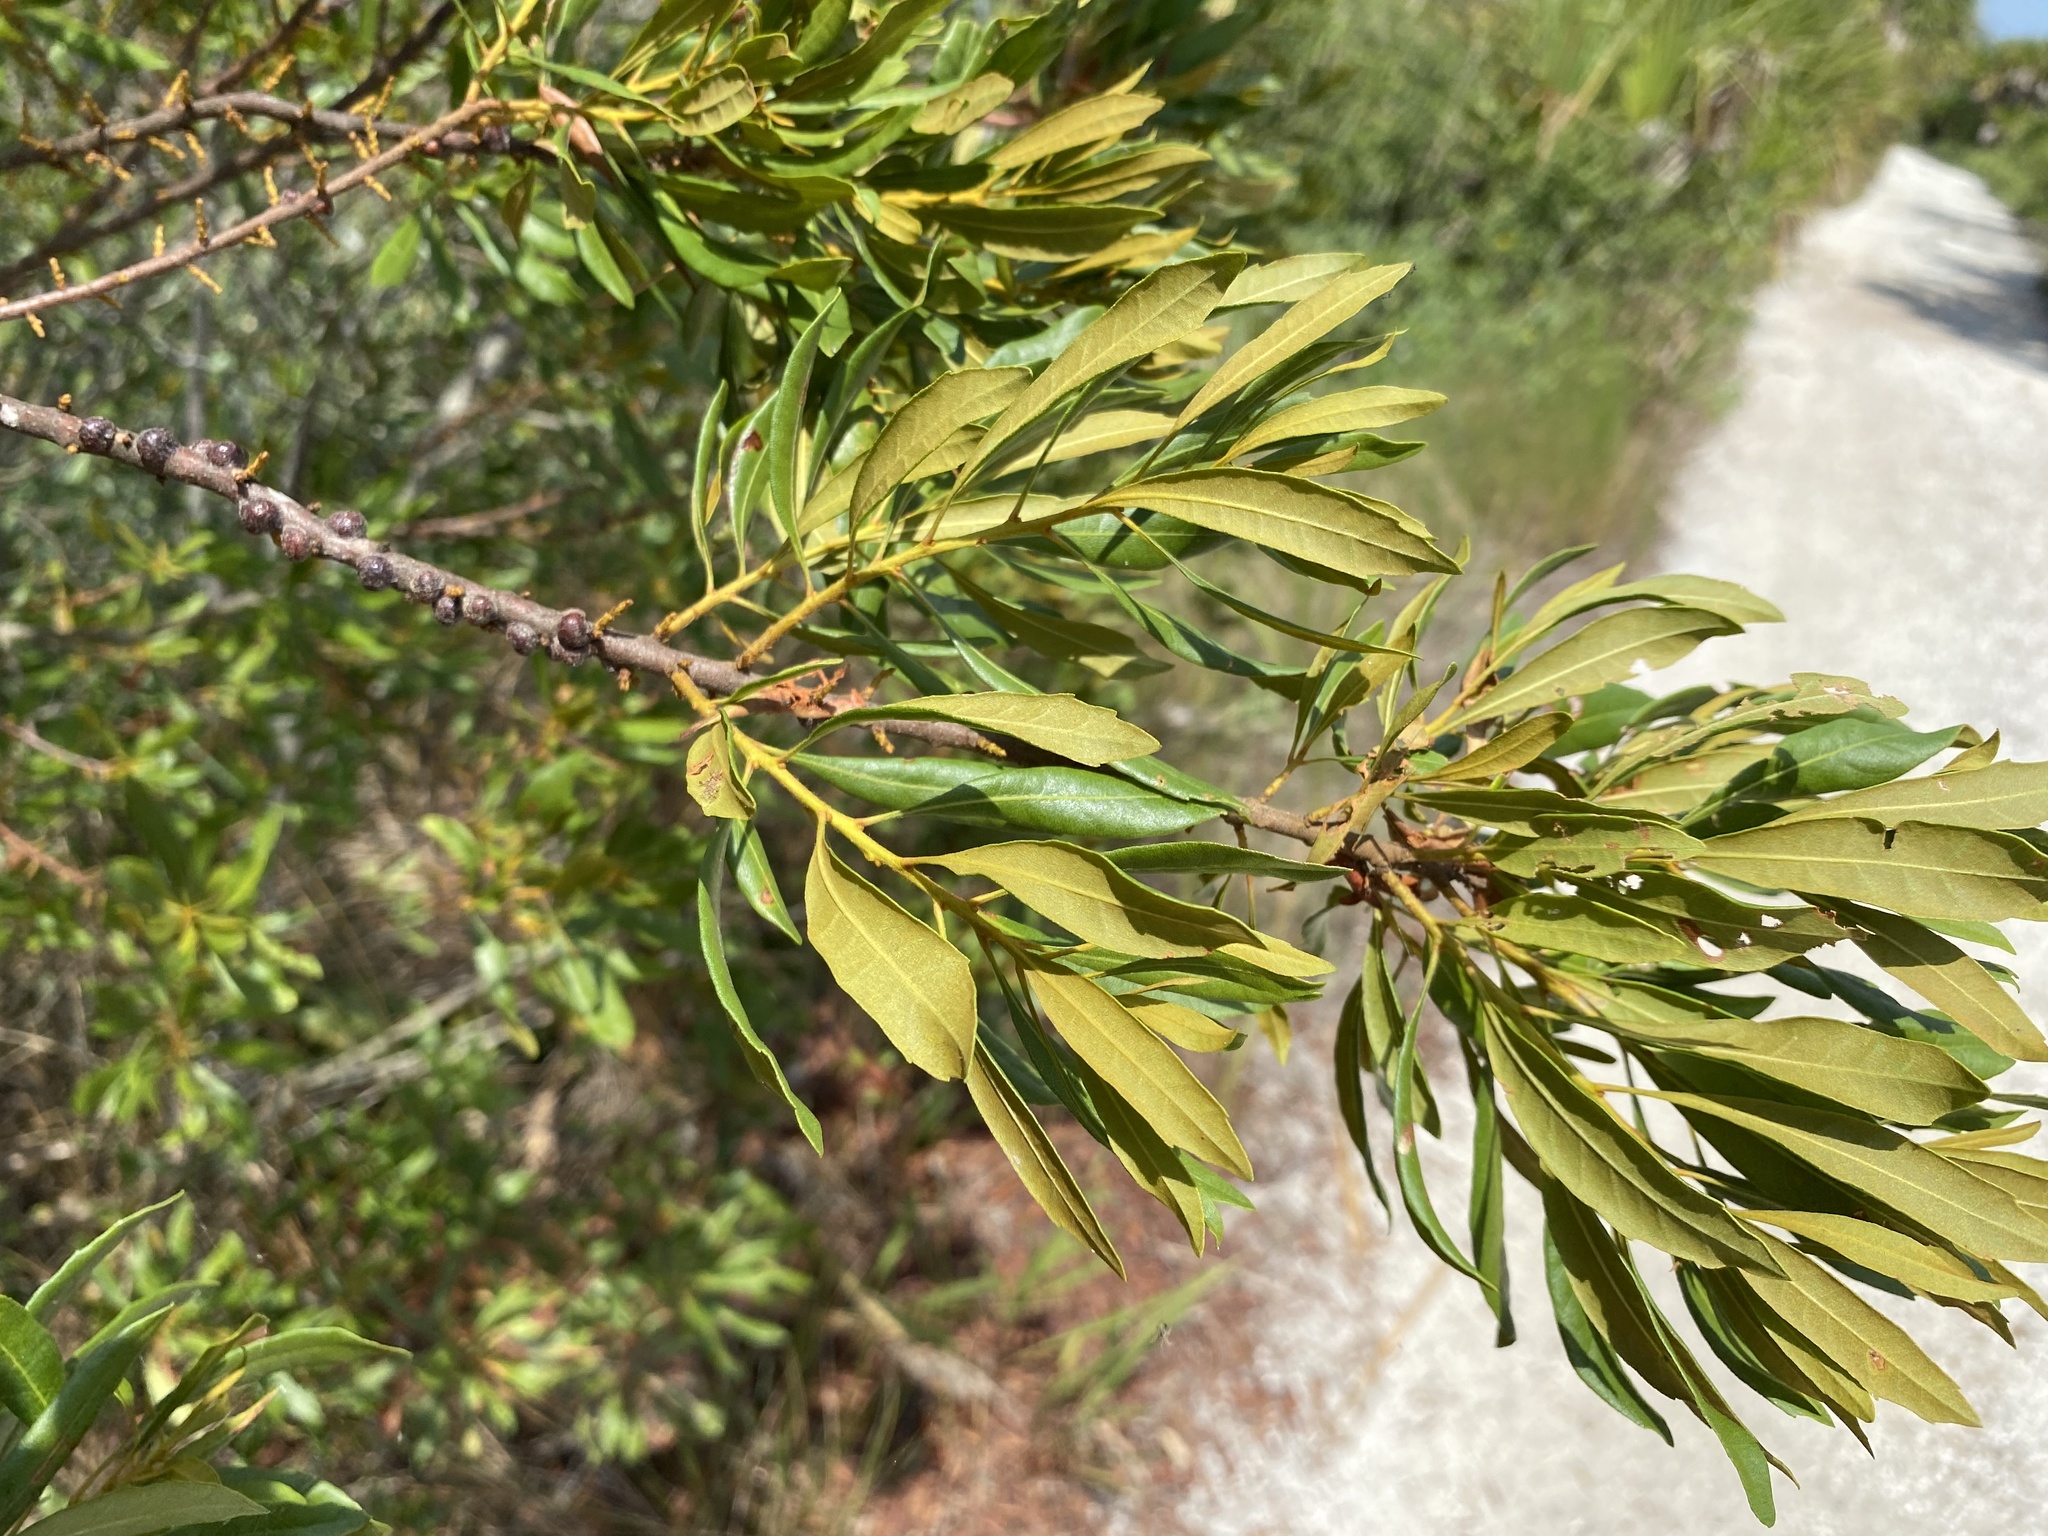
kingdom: Plantae
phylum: Tracheophyta
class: Magnoliopsida
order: Fagales
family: Myricaceae
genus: Morella
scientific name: Morella cerifera
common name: Wax myrtle
